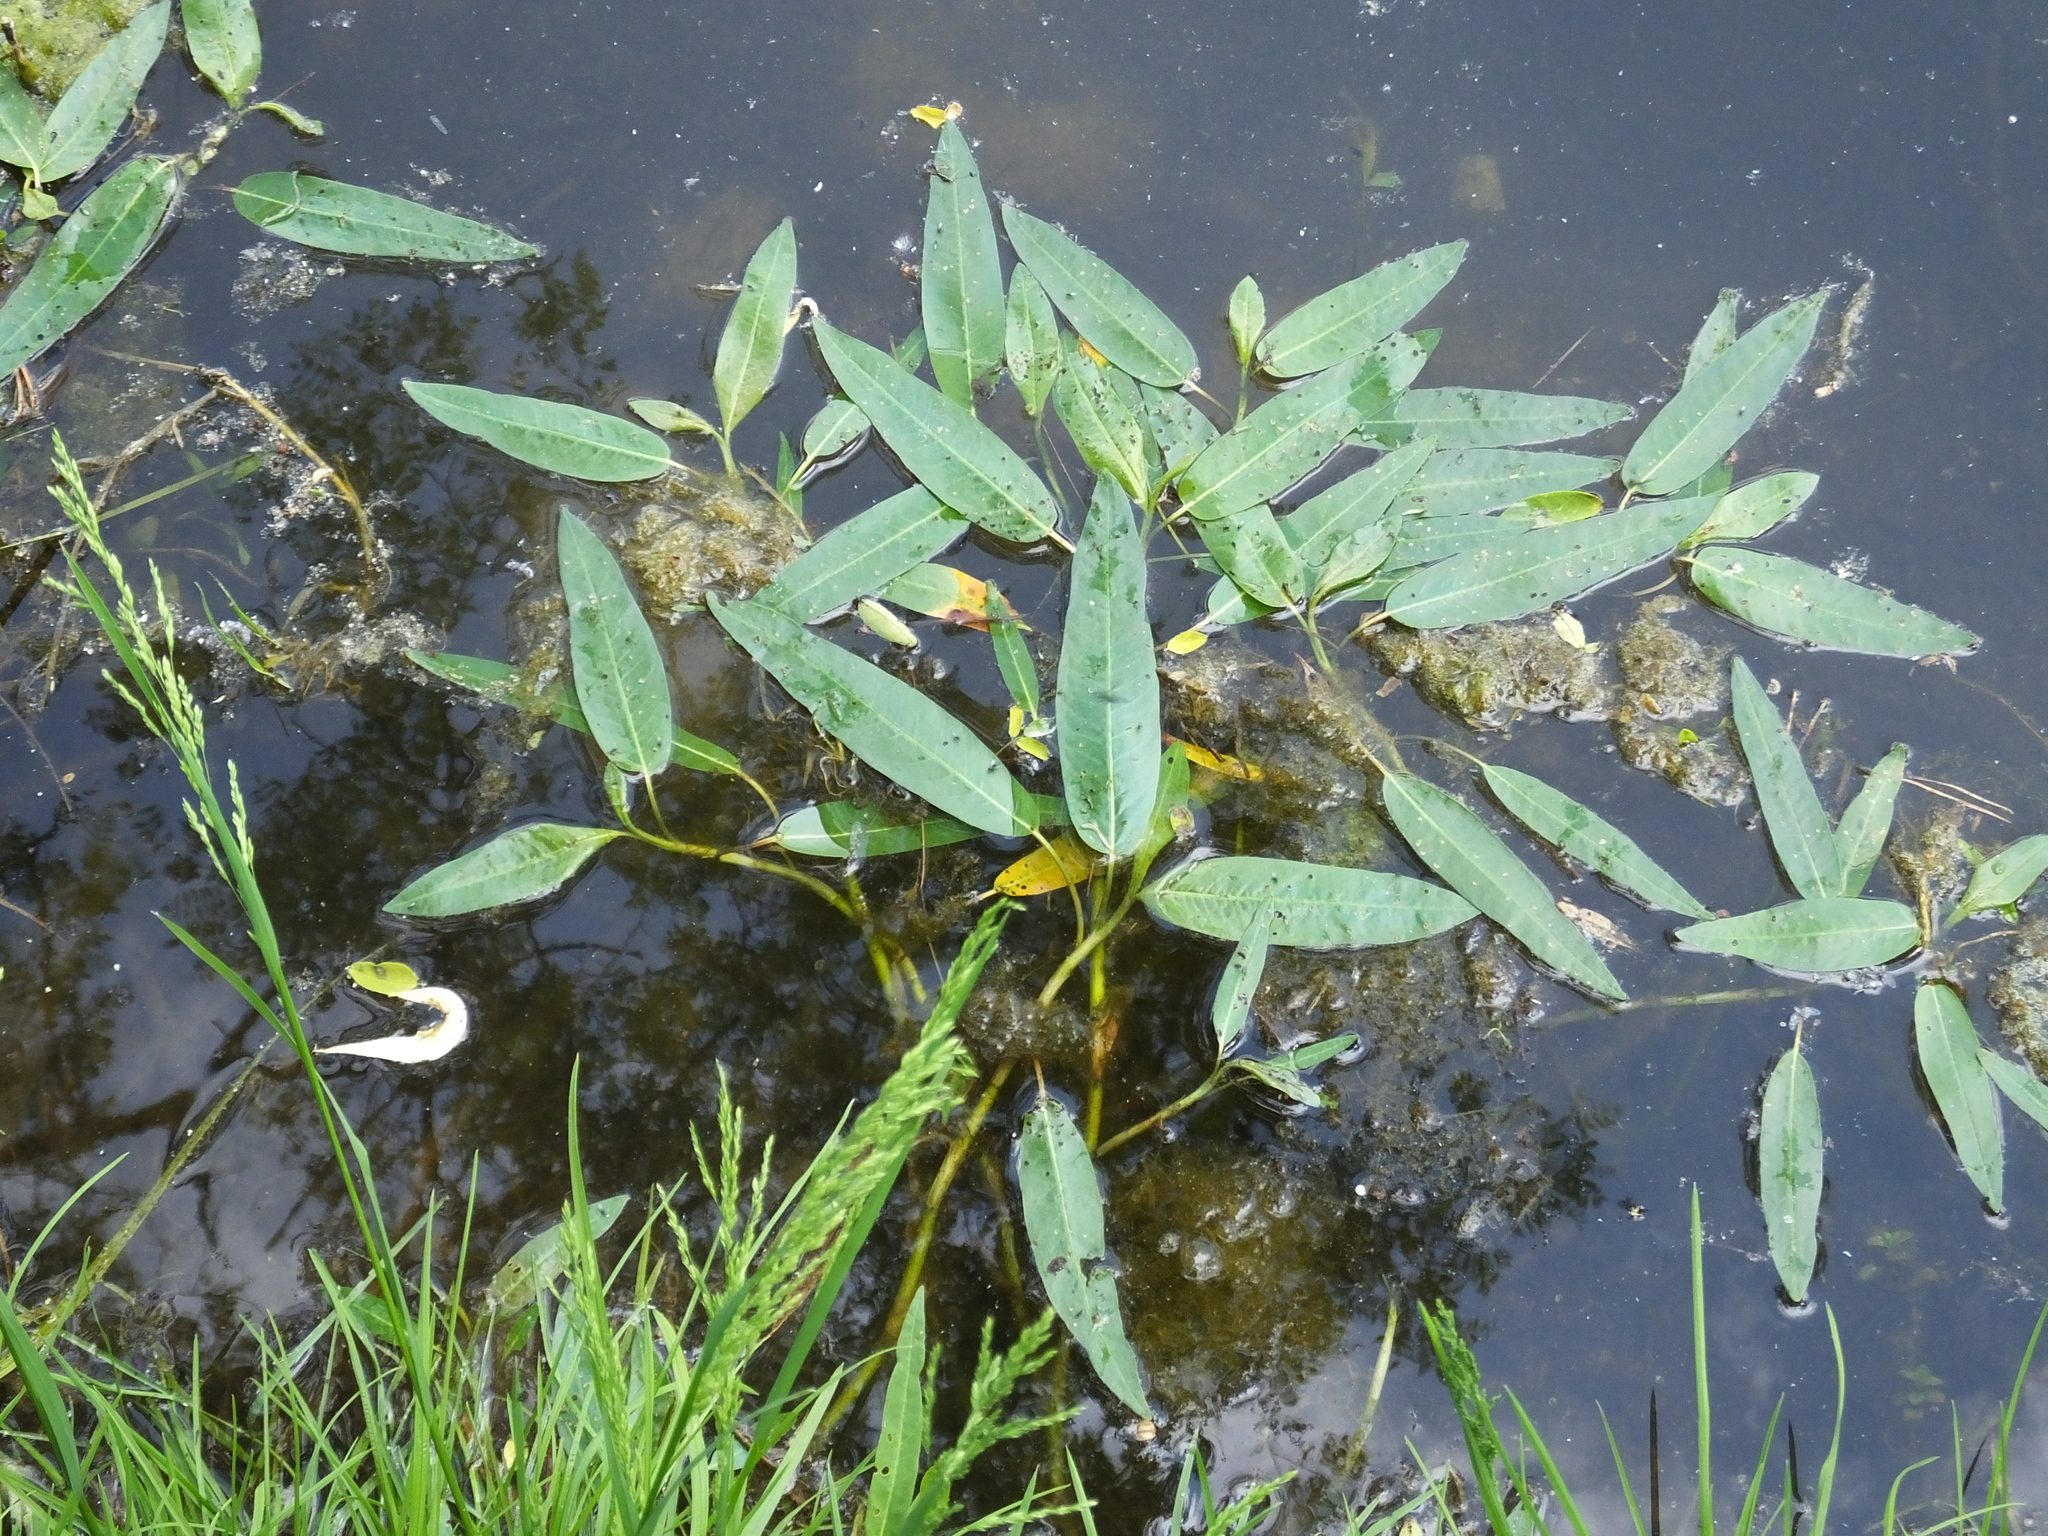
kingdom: Plantae
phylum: Tracheophyta
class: Magnoliopsida
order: Caryophyllales
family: Polygonaceae
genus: Persicaria
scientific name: Persicaria amphibia
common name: Amphibious bistort
